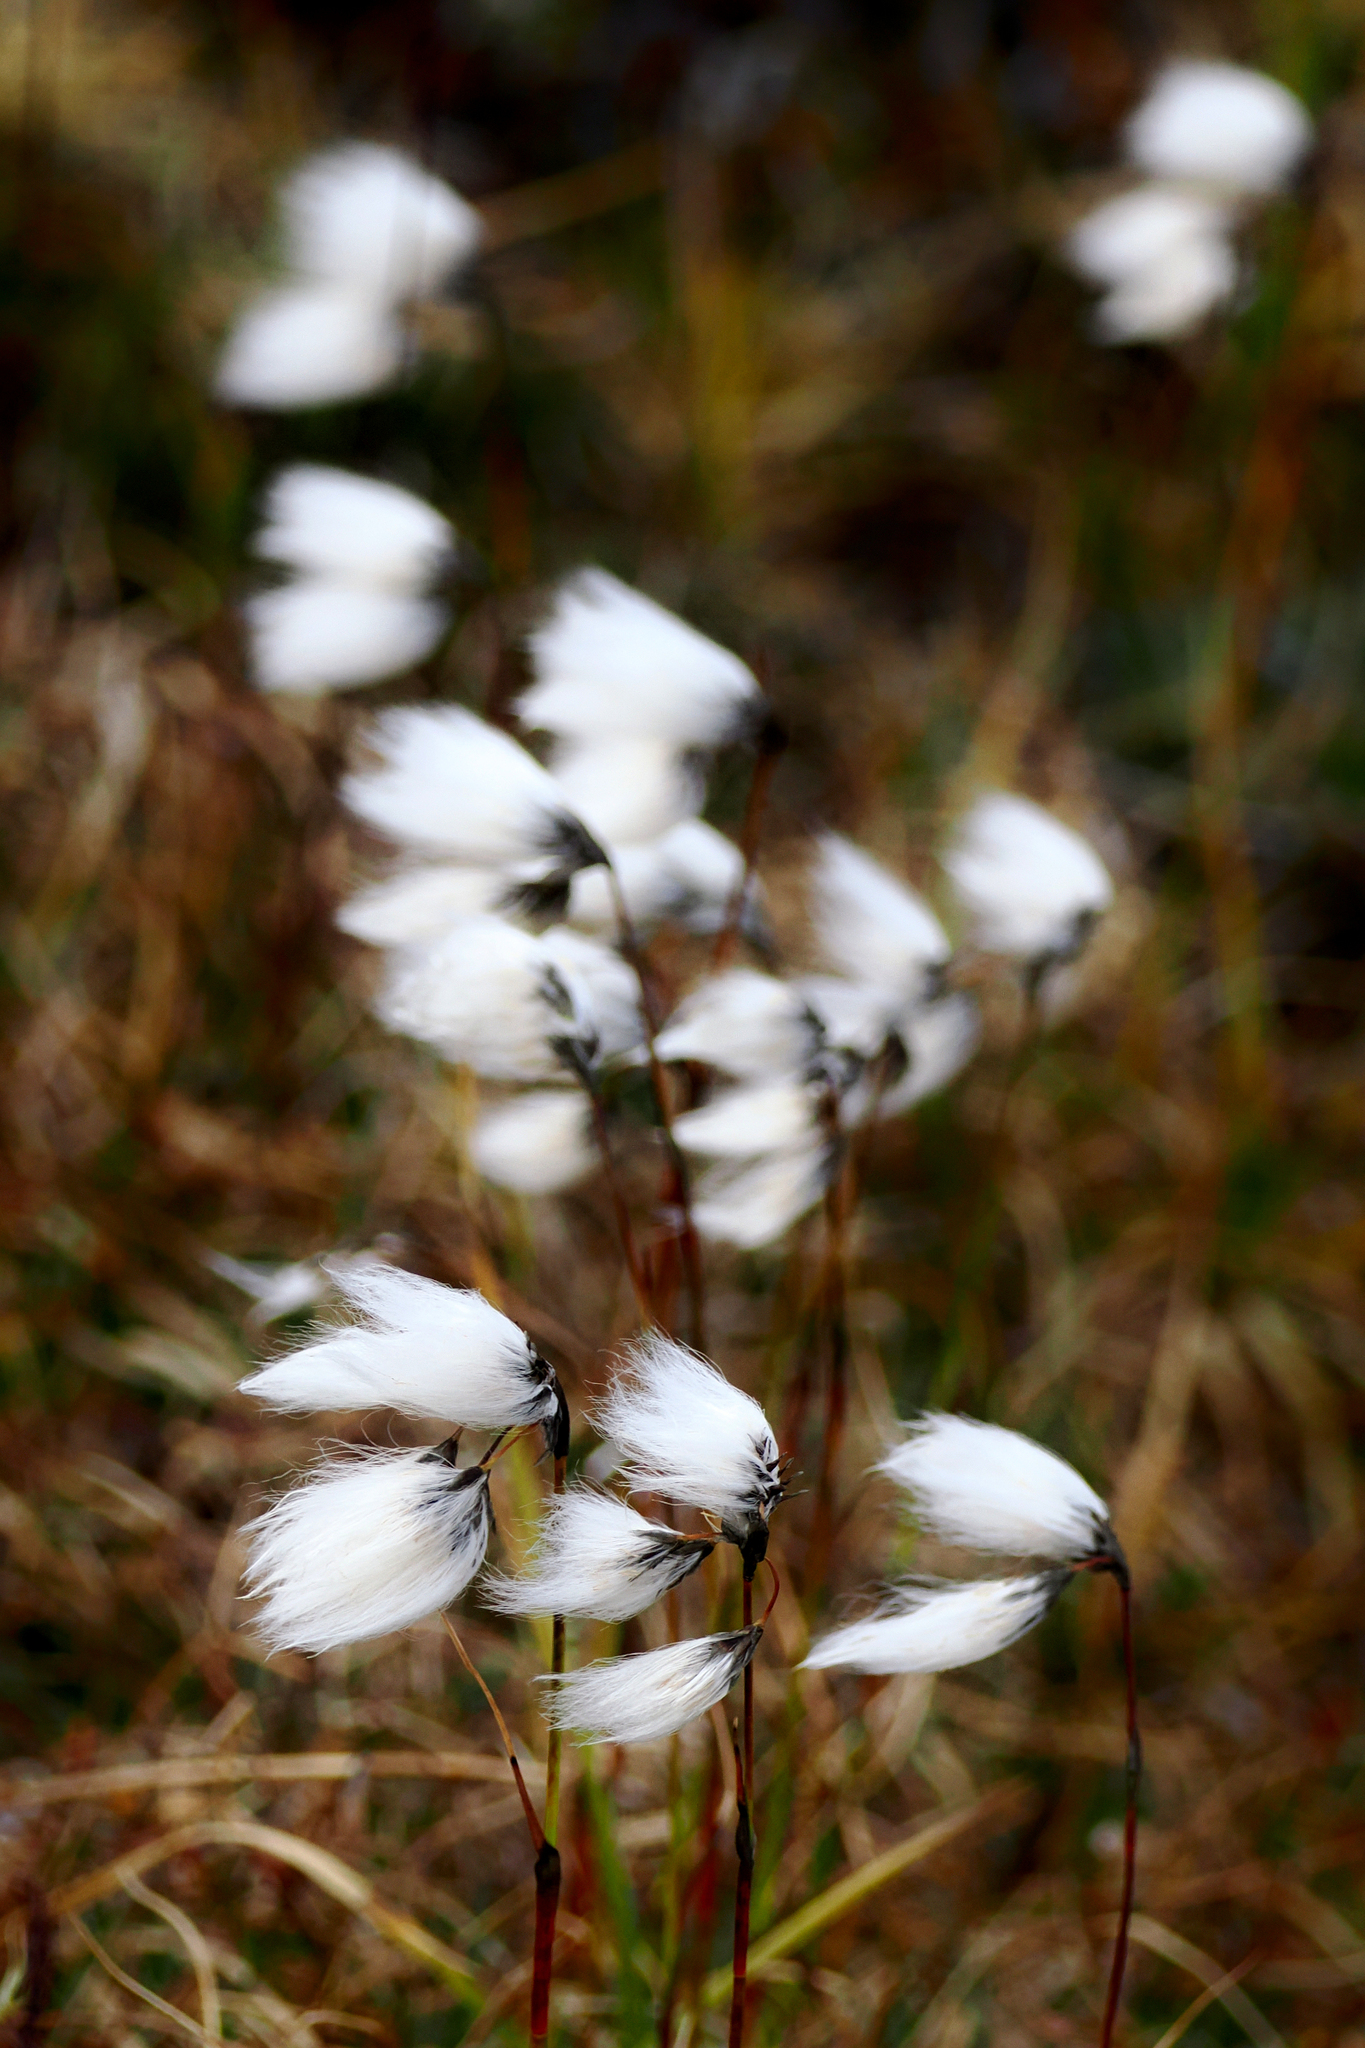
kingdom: Plantae
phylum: Tracheophyta
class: Liliopsida
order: Poales
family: Cyperaceae
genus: Eriophorum
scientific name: Eriophorum angustifolium
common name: Common cottongrass
